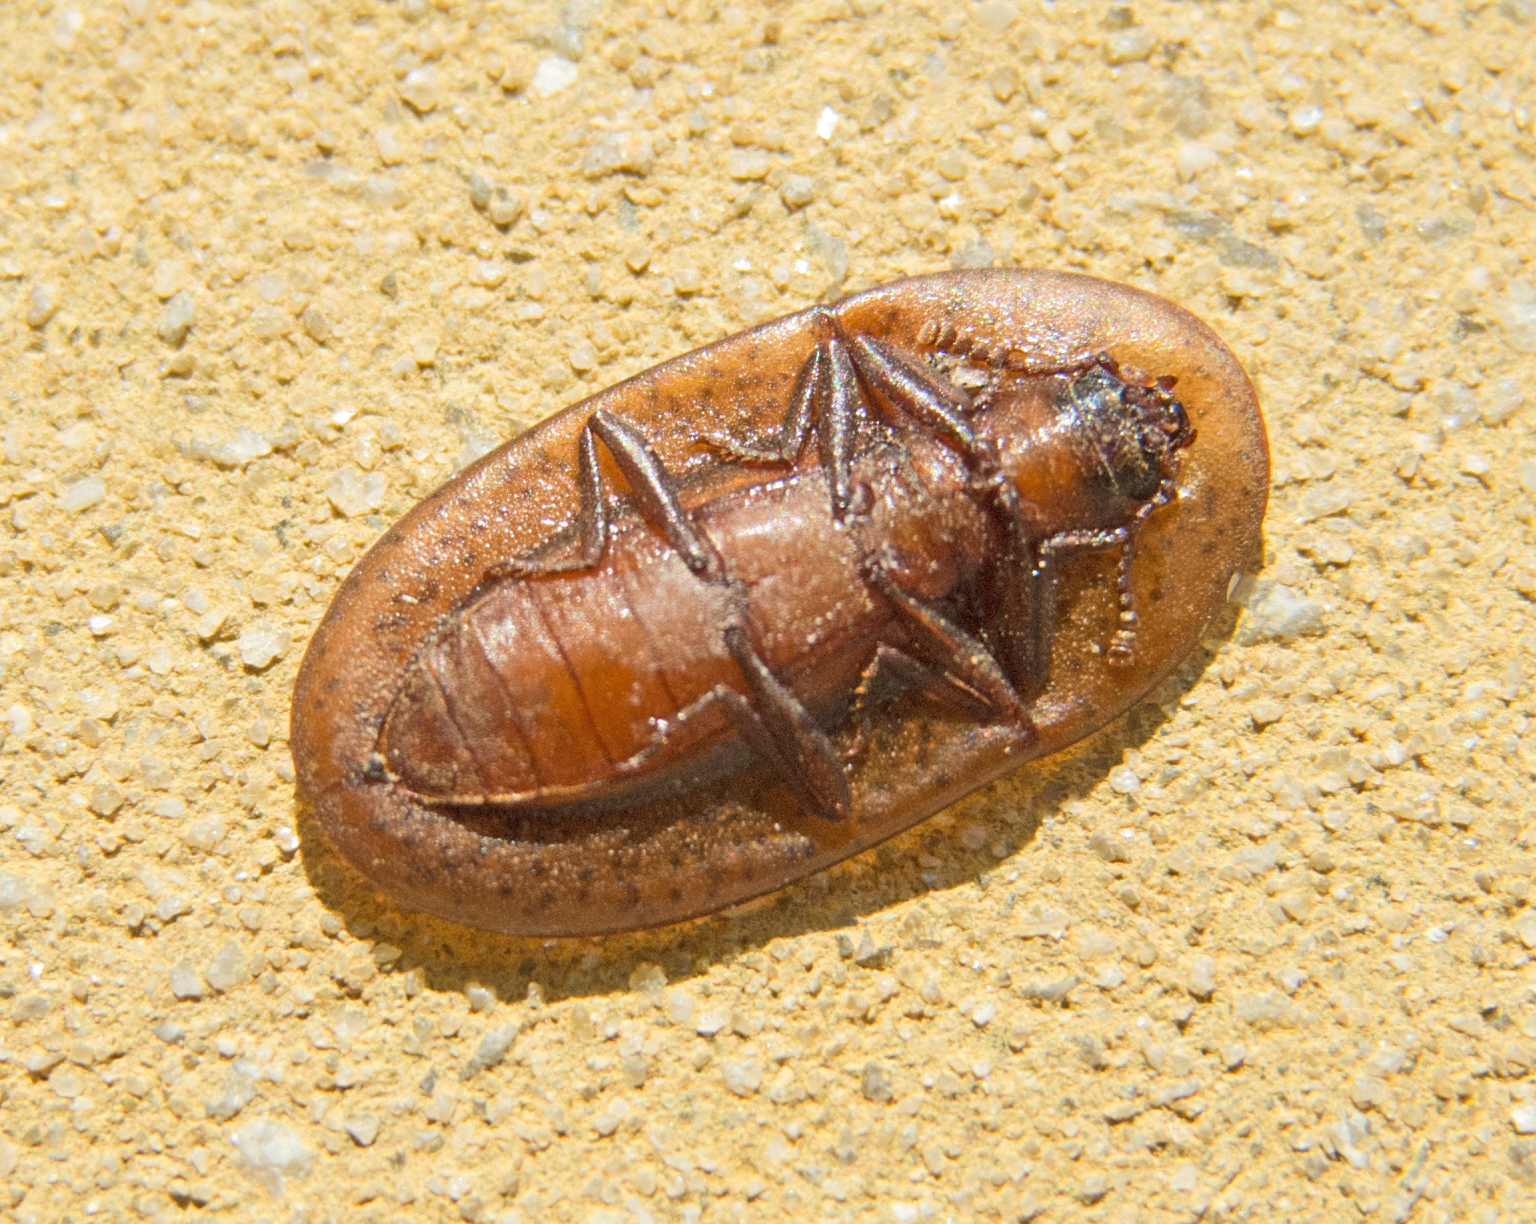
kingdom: Animalia
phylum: Arthropoda
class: Insecta
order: Coleoptera
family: Tenebrionidae
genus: Cossyphus
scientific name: Cossyphus tauricus
